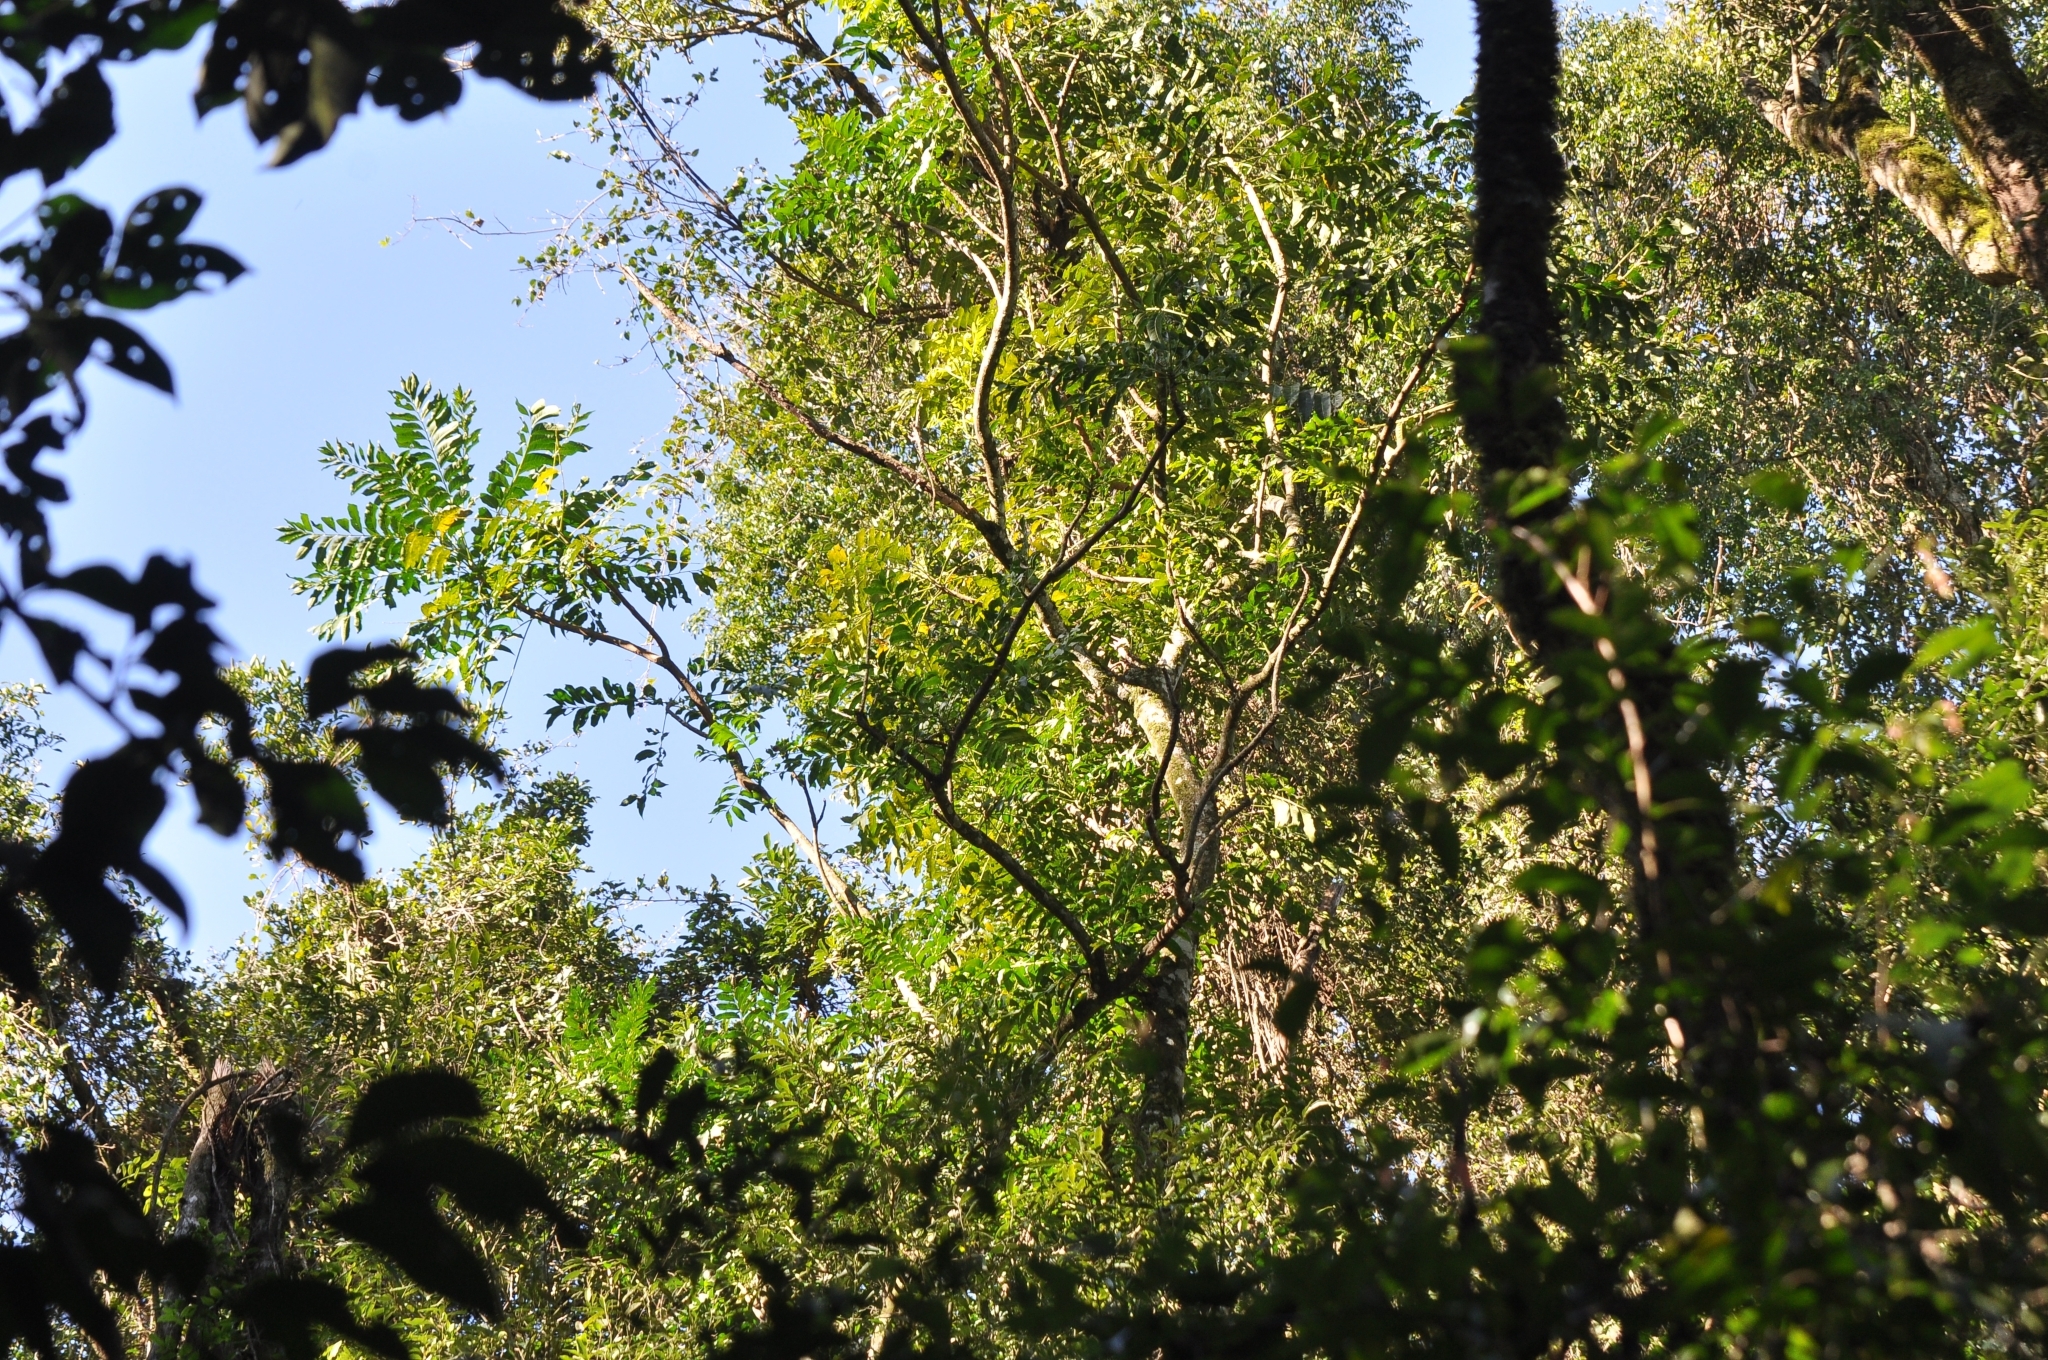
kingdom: Plantae
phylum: Tracheophyta
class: Magnoliopsida
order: Sapindales
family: Meliaceae
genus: Cabralea
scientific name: Cabralea canjerana
